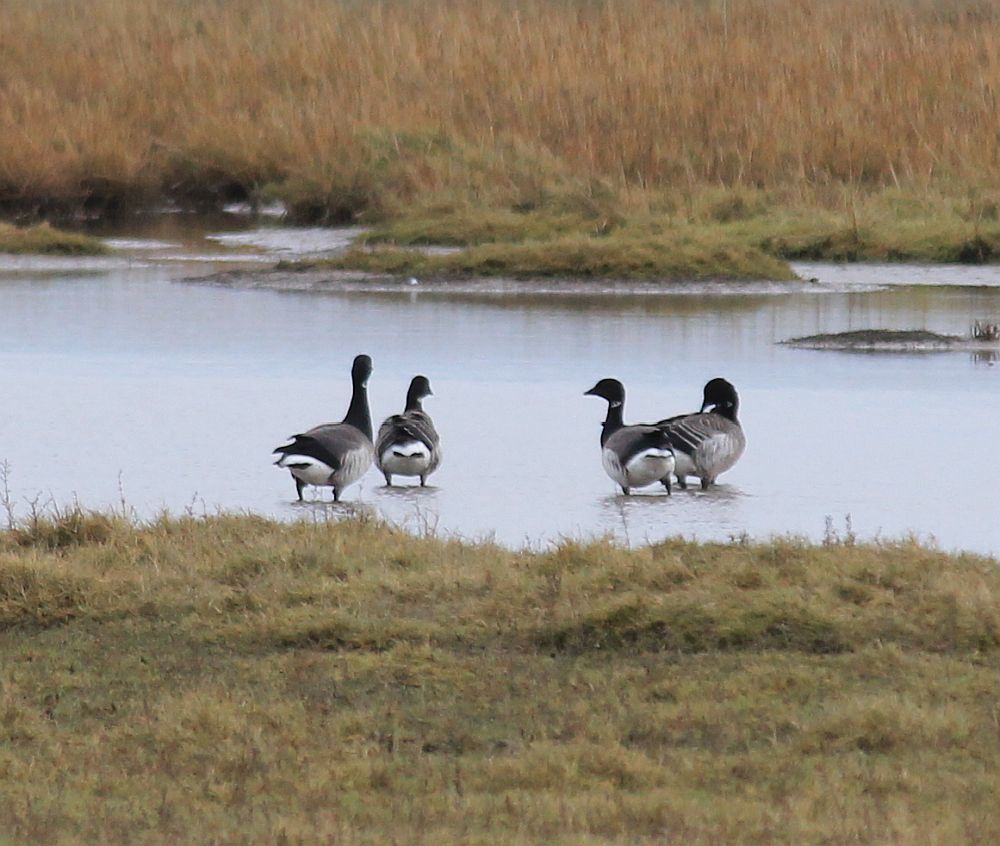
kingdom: Animalia
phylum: Chordata
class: Aves
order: Anseriformes
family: Anatidae
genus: Branta
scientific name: Branta bernicla
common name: Brant goose
